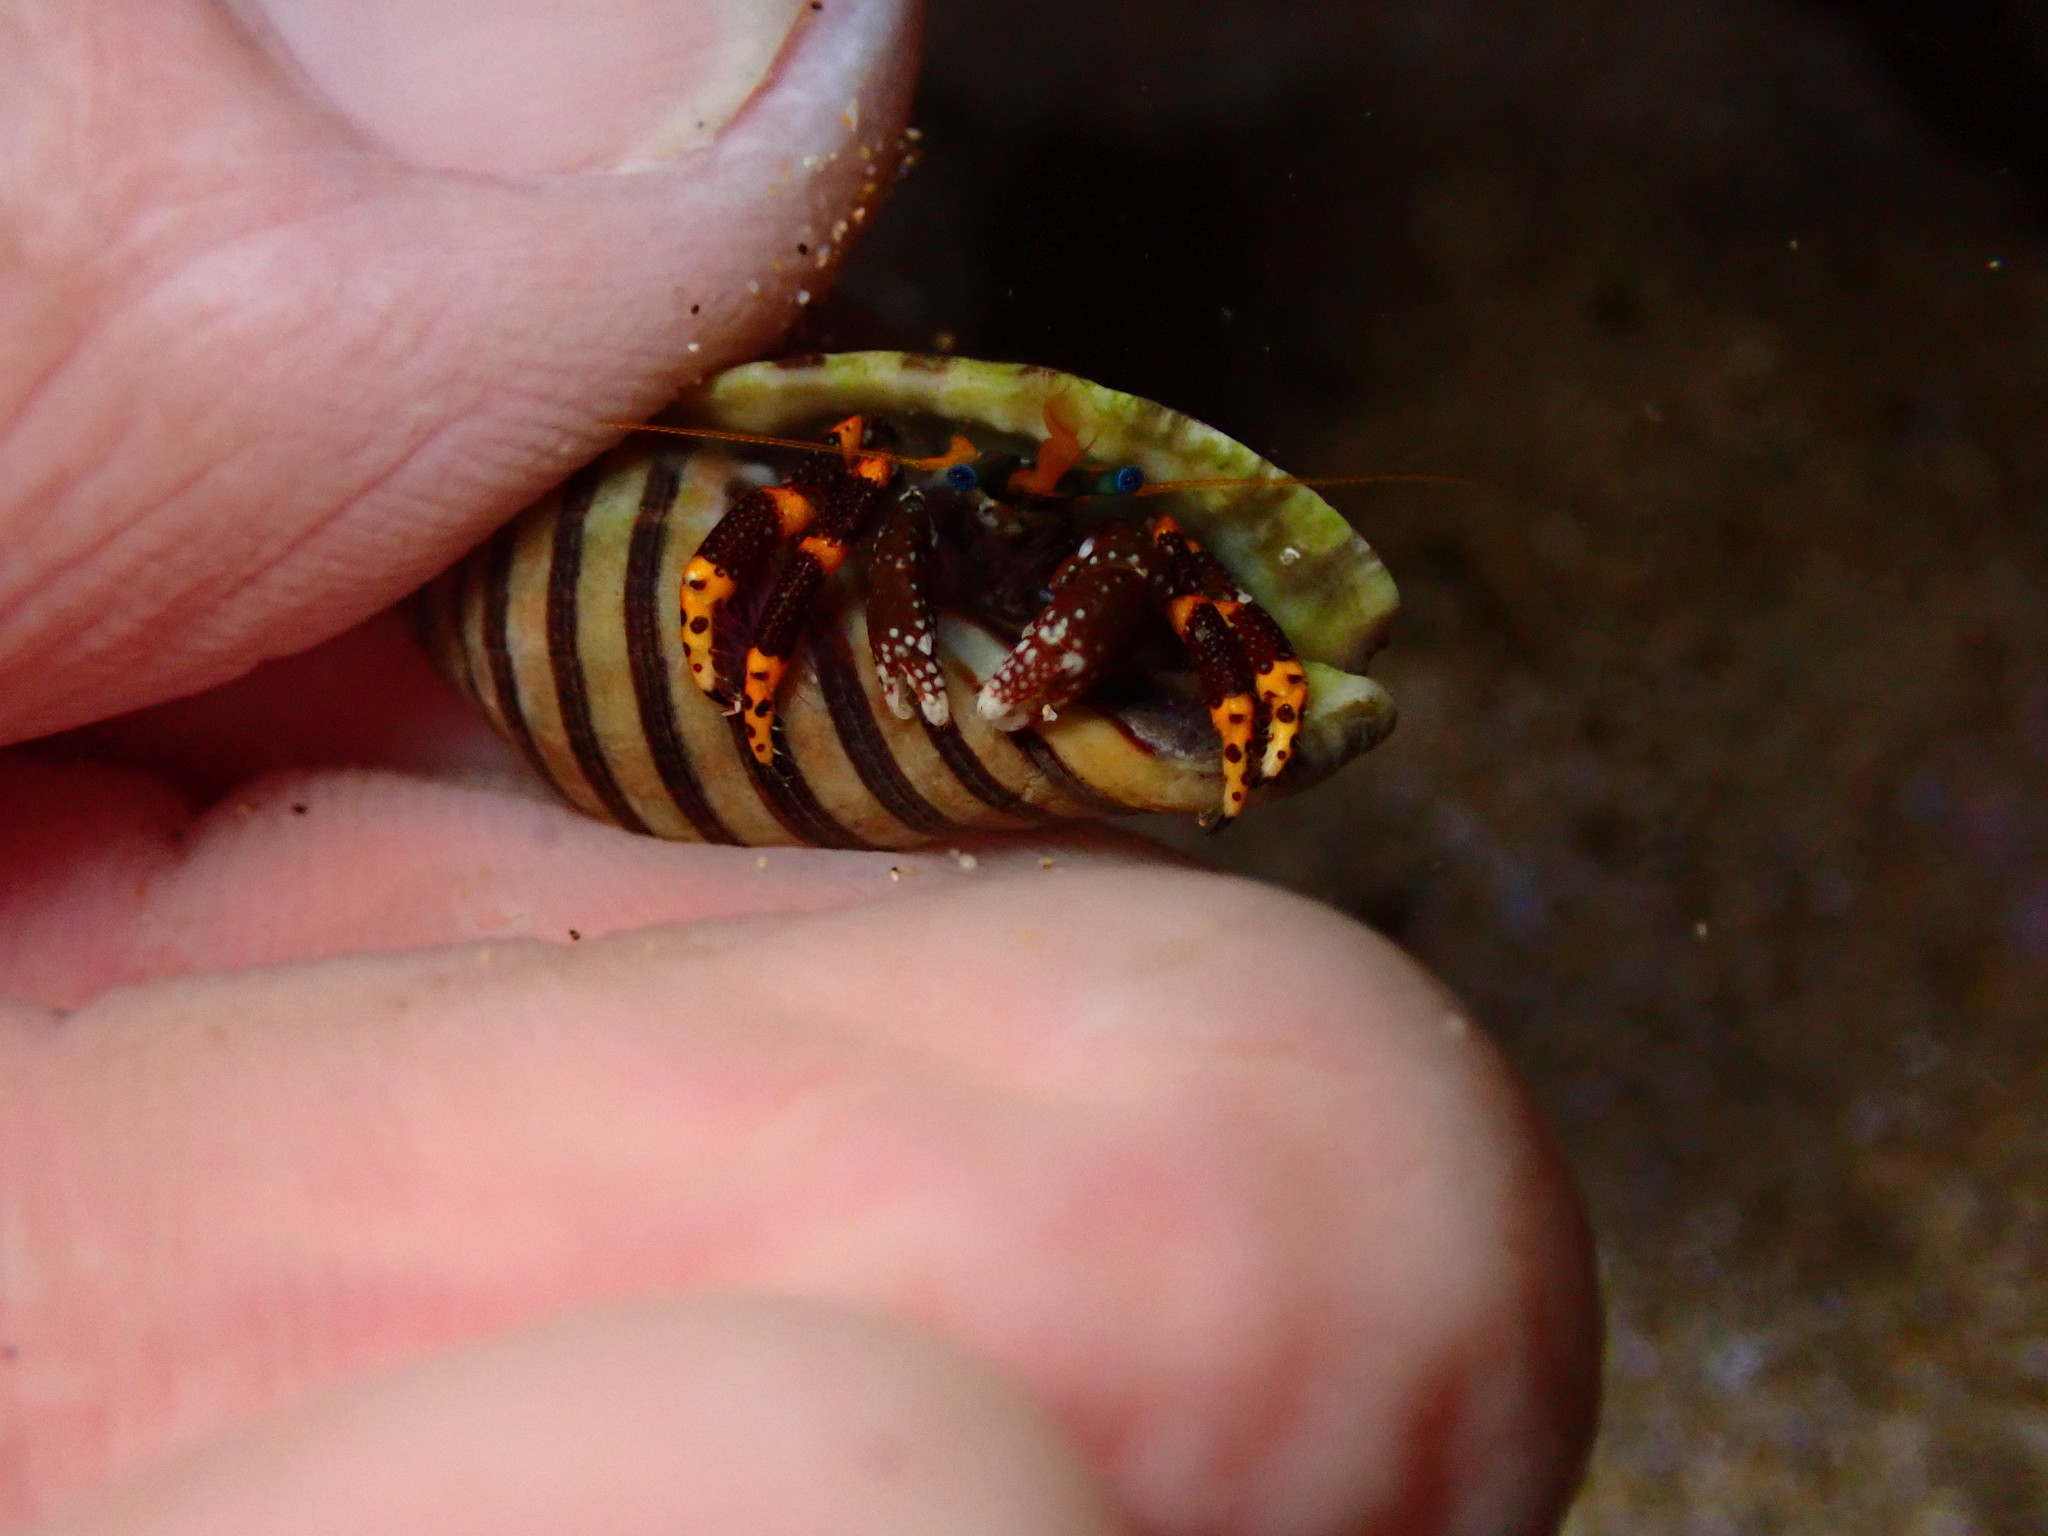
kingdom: Animalia
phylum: Arthropoda
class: Malacostraca
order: Decapoda
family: Diogenidae
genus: Calcinus
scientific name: Calcinus pictus
